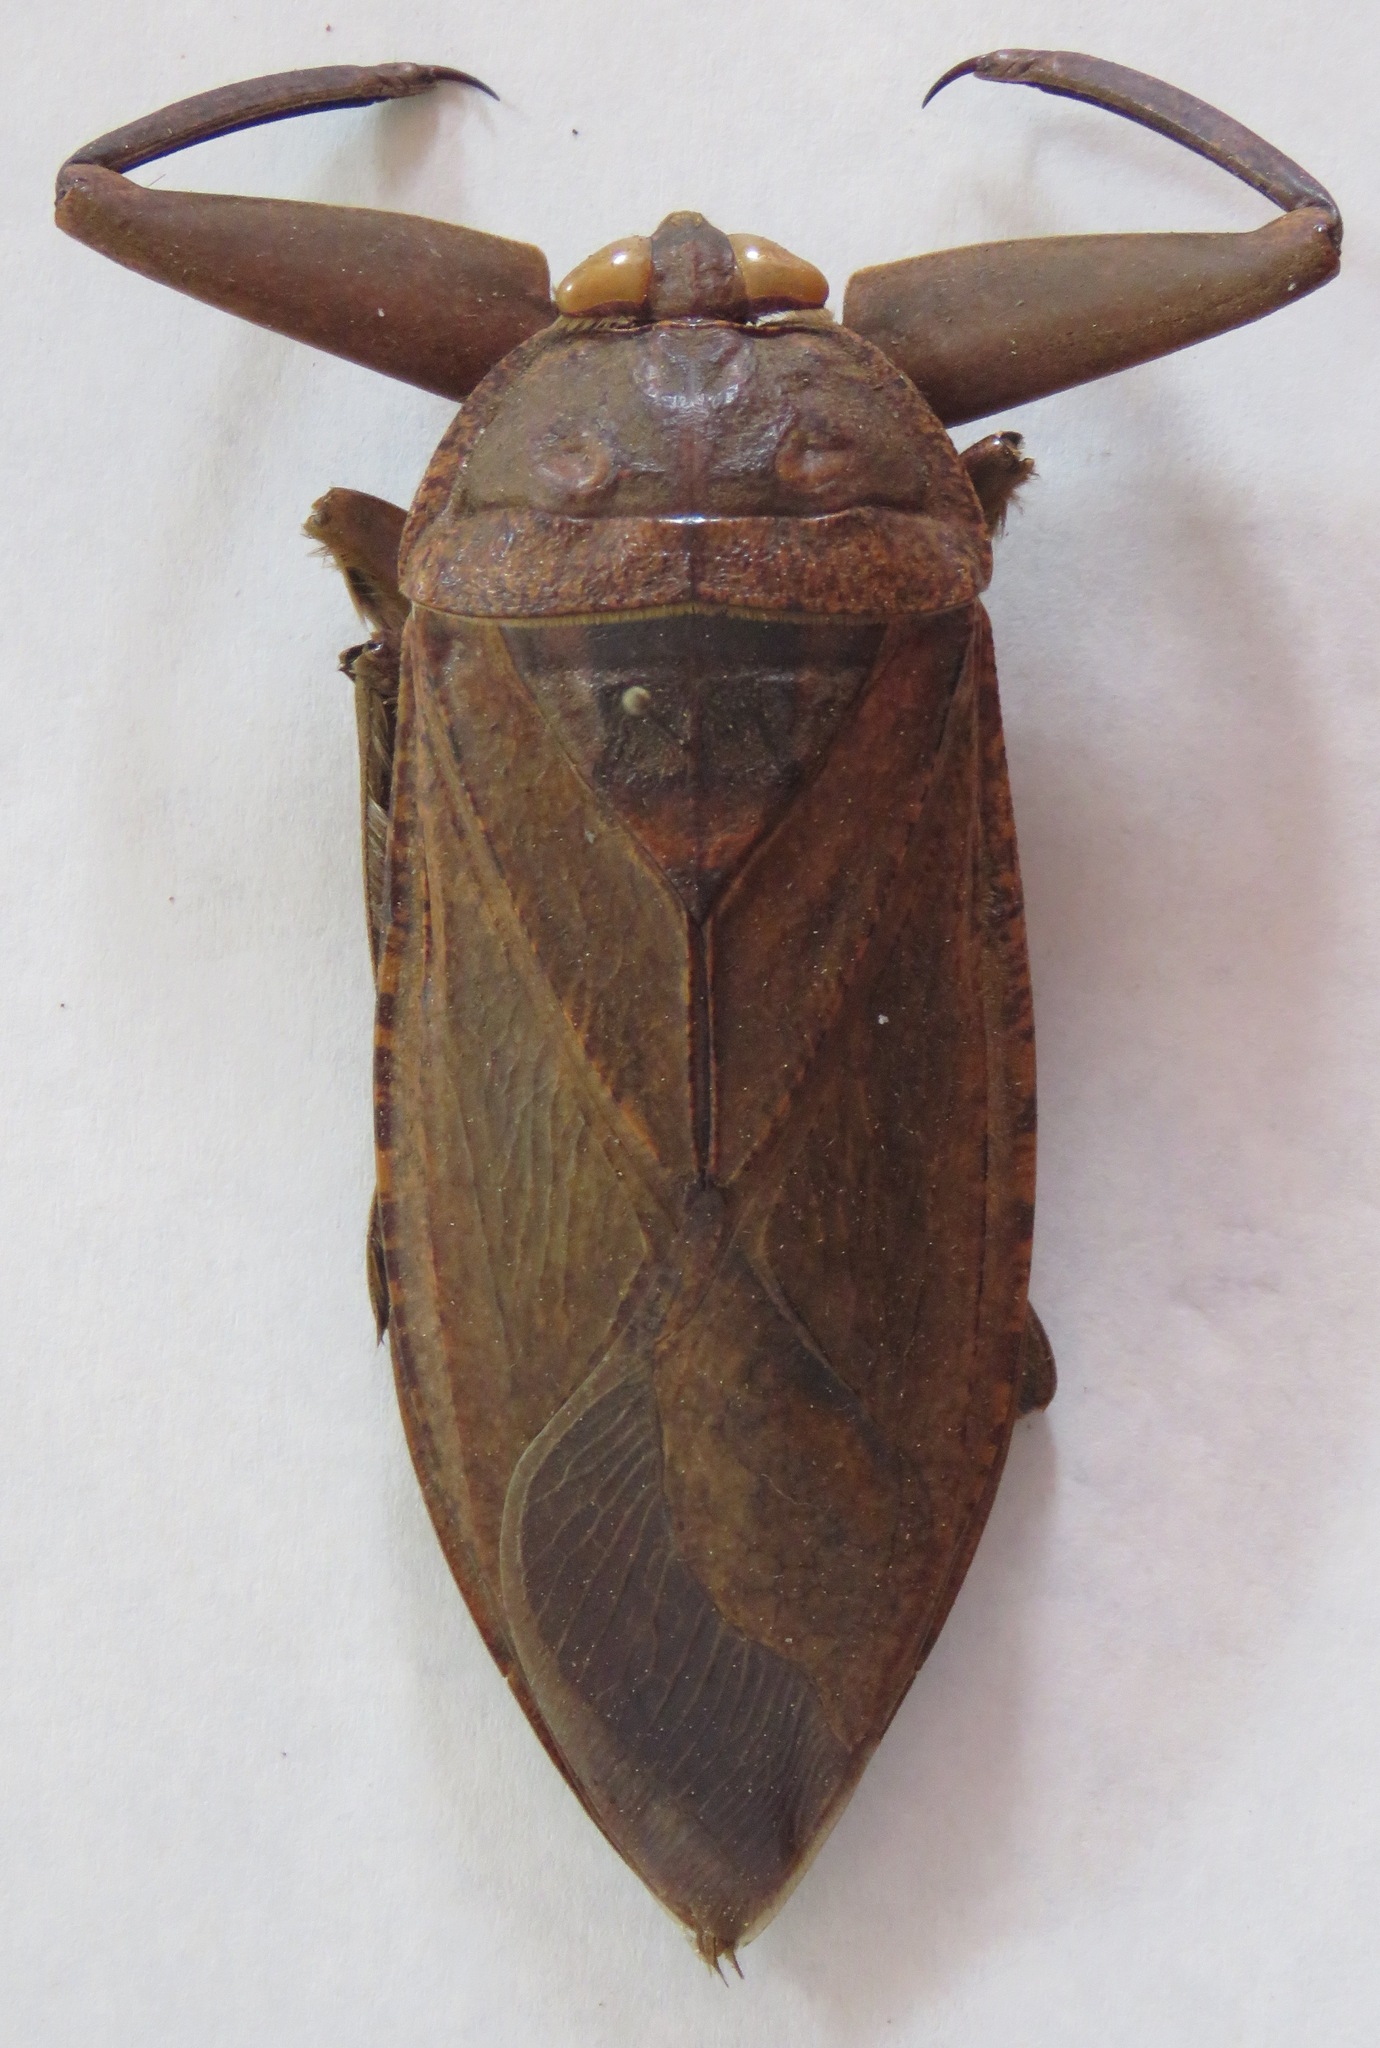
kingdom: Animalia
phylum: Arthropoda
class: Insecta
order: Hemiptera
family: Belostomatidae
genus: Lethocerus
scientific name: Lethocerus collossicus
